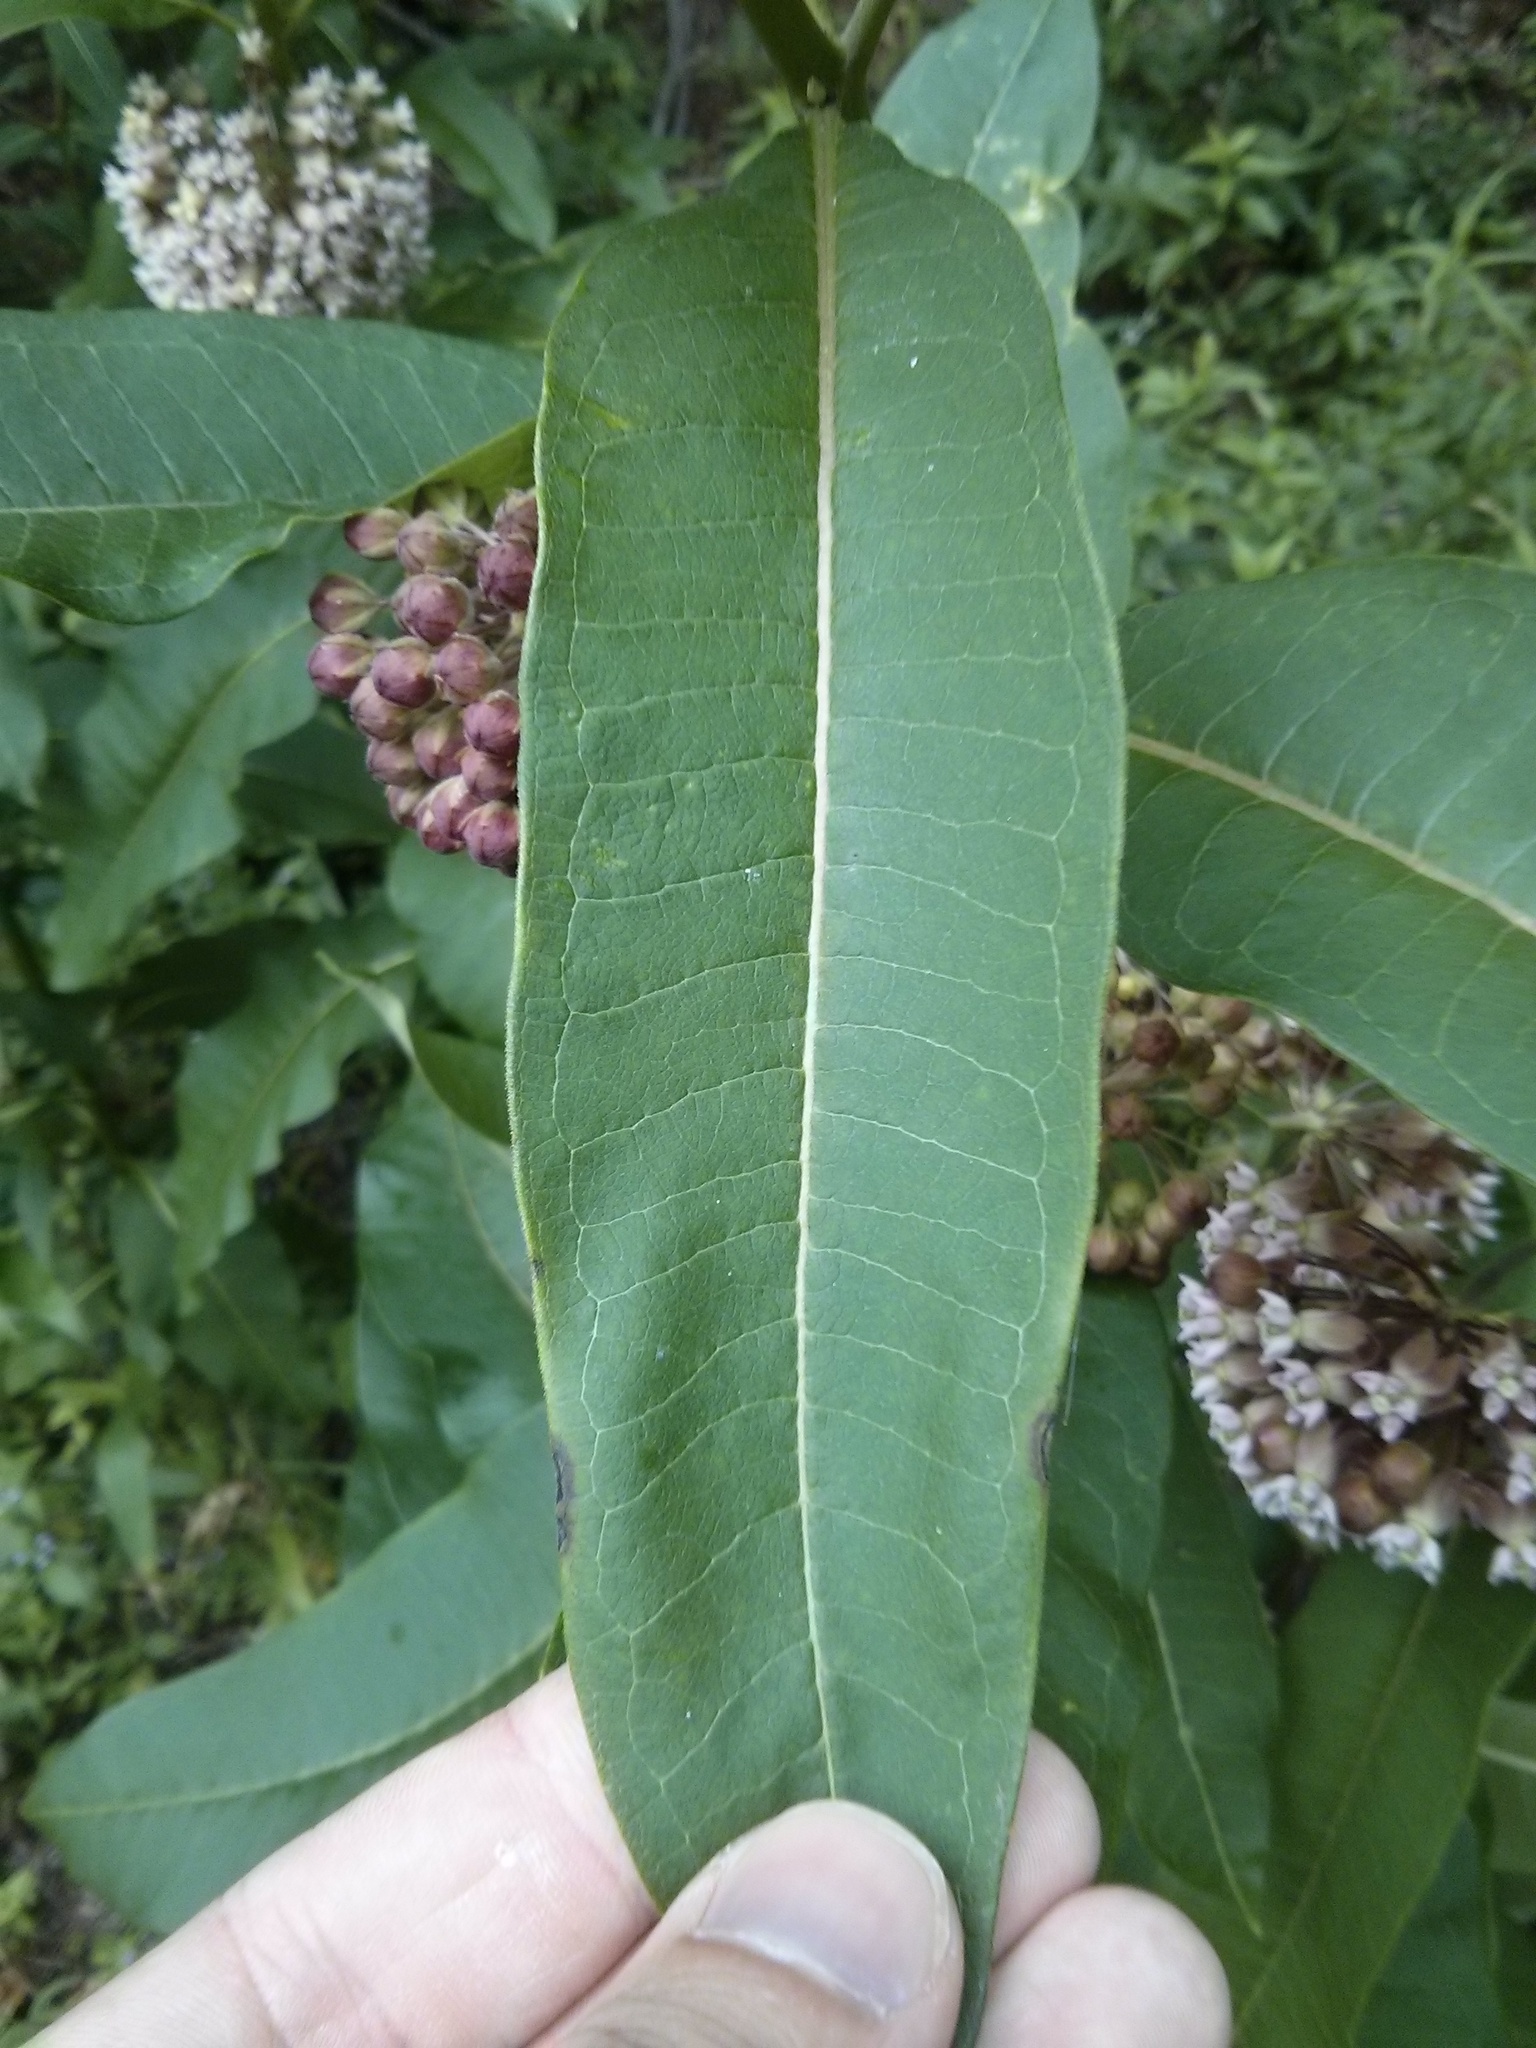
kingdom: Plantae
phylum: Tracheophyta
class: Magnoliopsida
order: Gentianales
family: Apocynaceae
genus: Asclepias
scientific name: Asclepias syriaca
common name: Common milkweed
